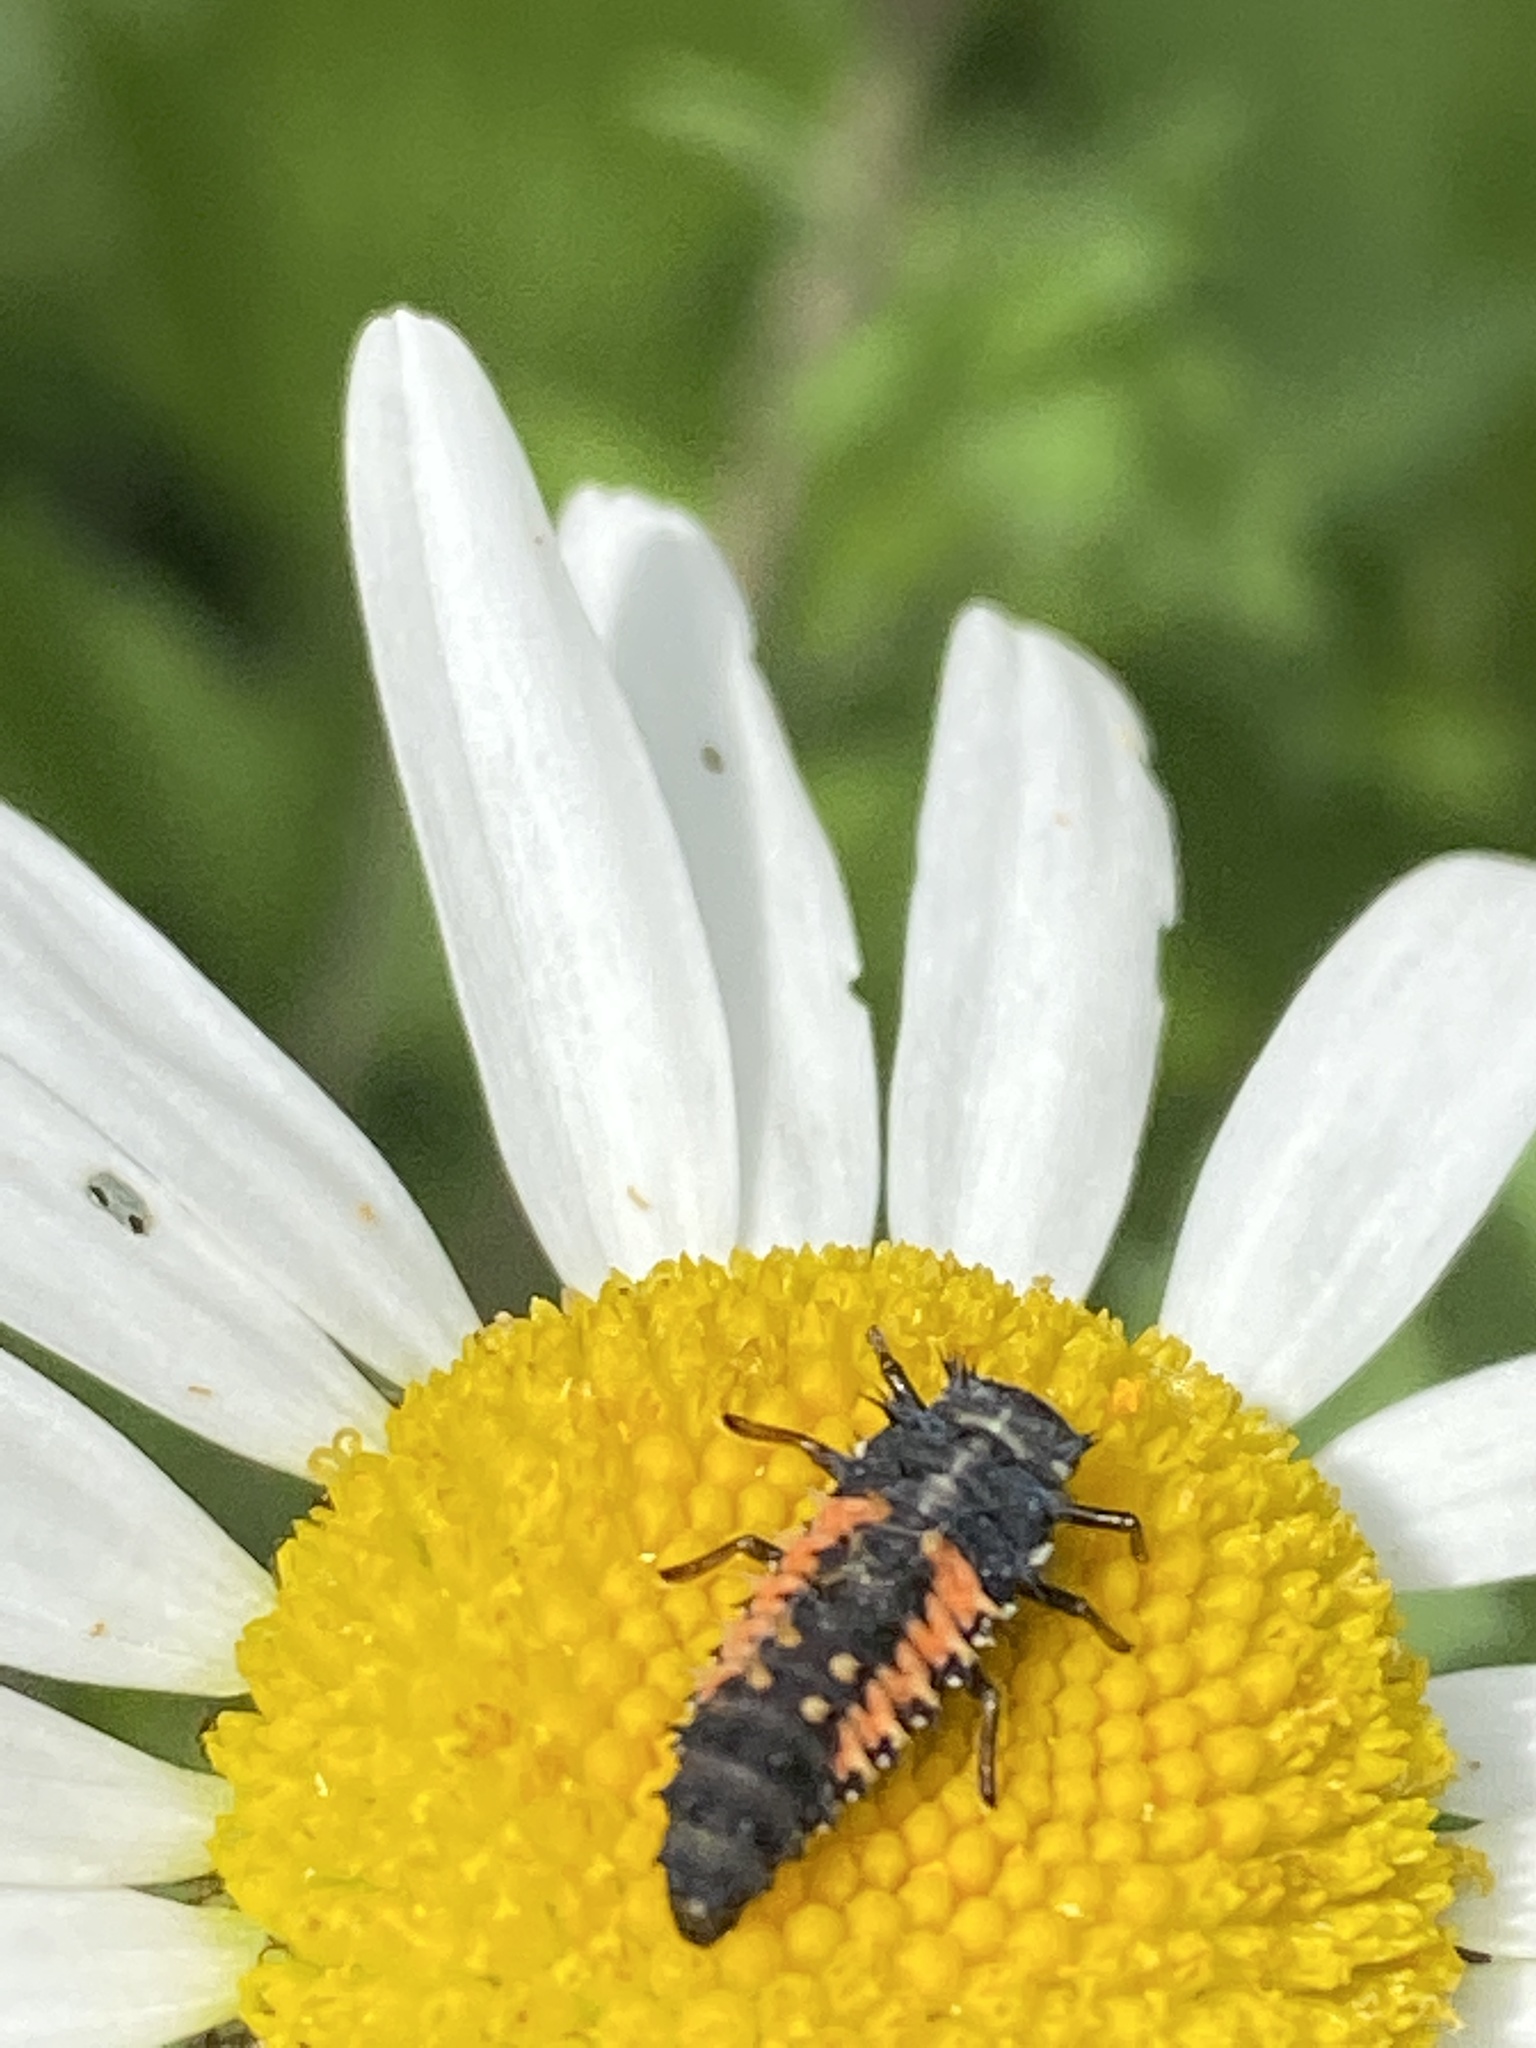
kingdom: Animalia
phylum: Arthropoda
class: Insecta
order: Coleoptera
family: Coccinellidae
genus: Harmonia
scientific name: Harmonia axyridis
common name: Harlequin ladybird
